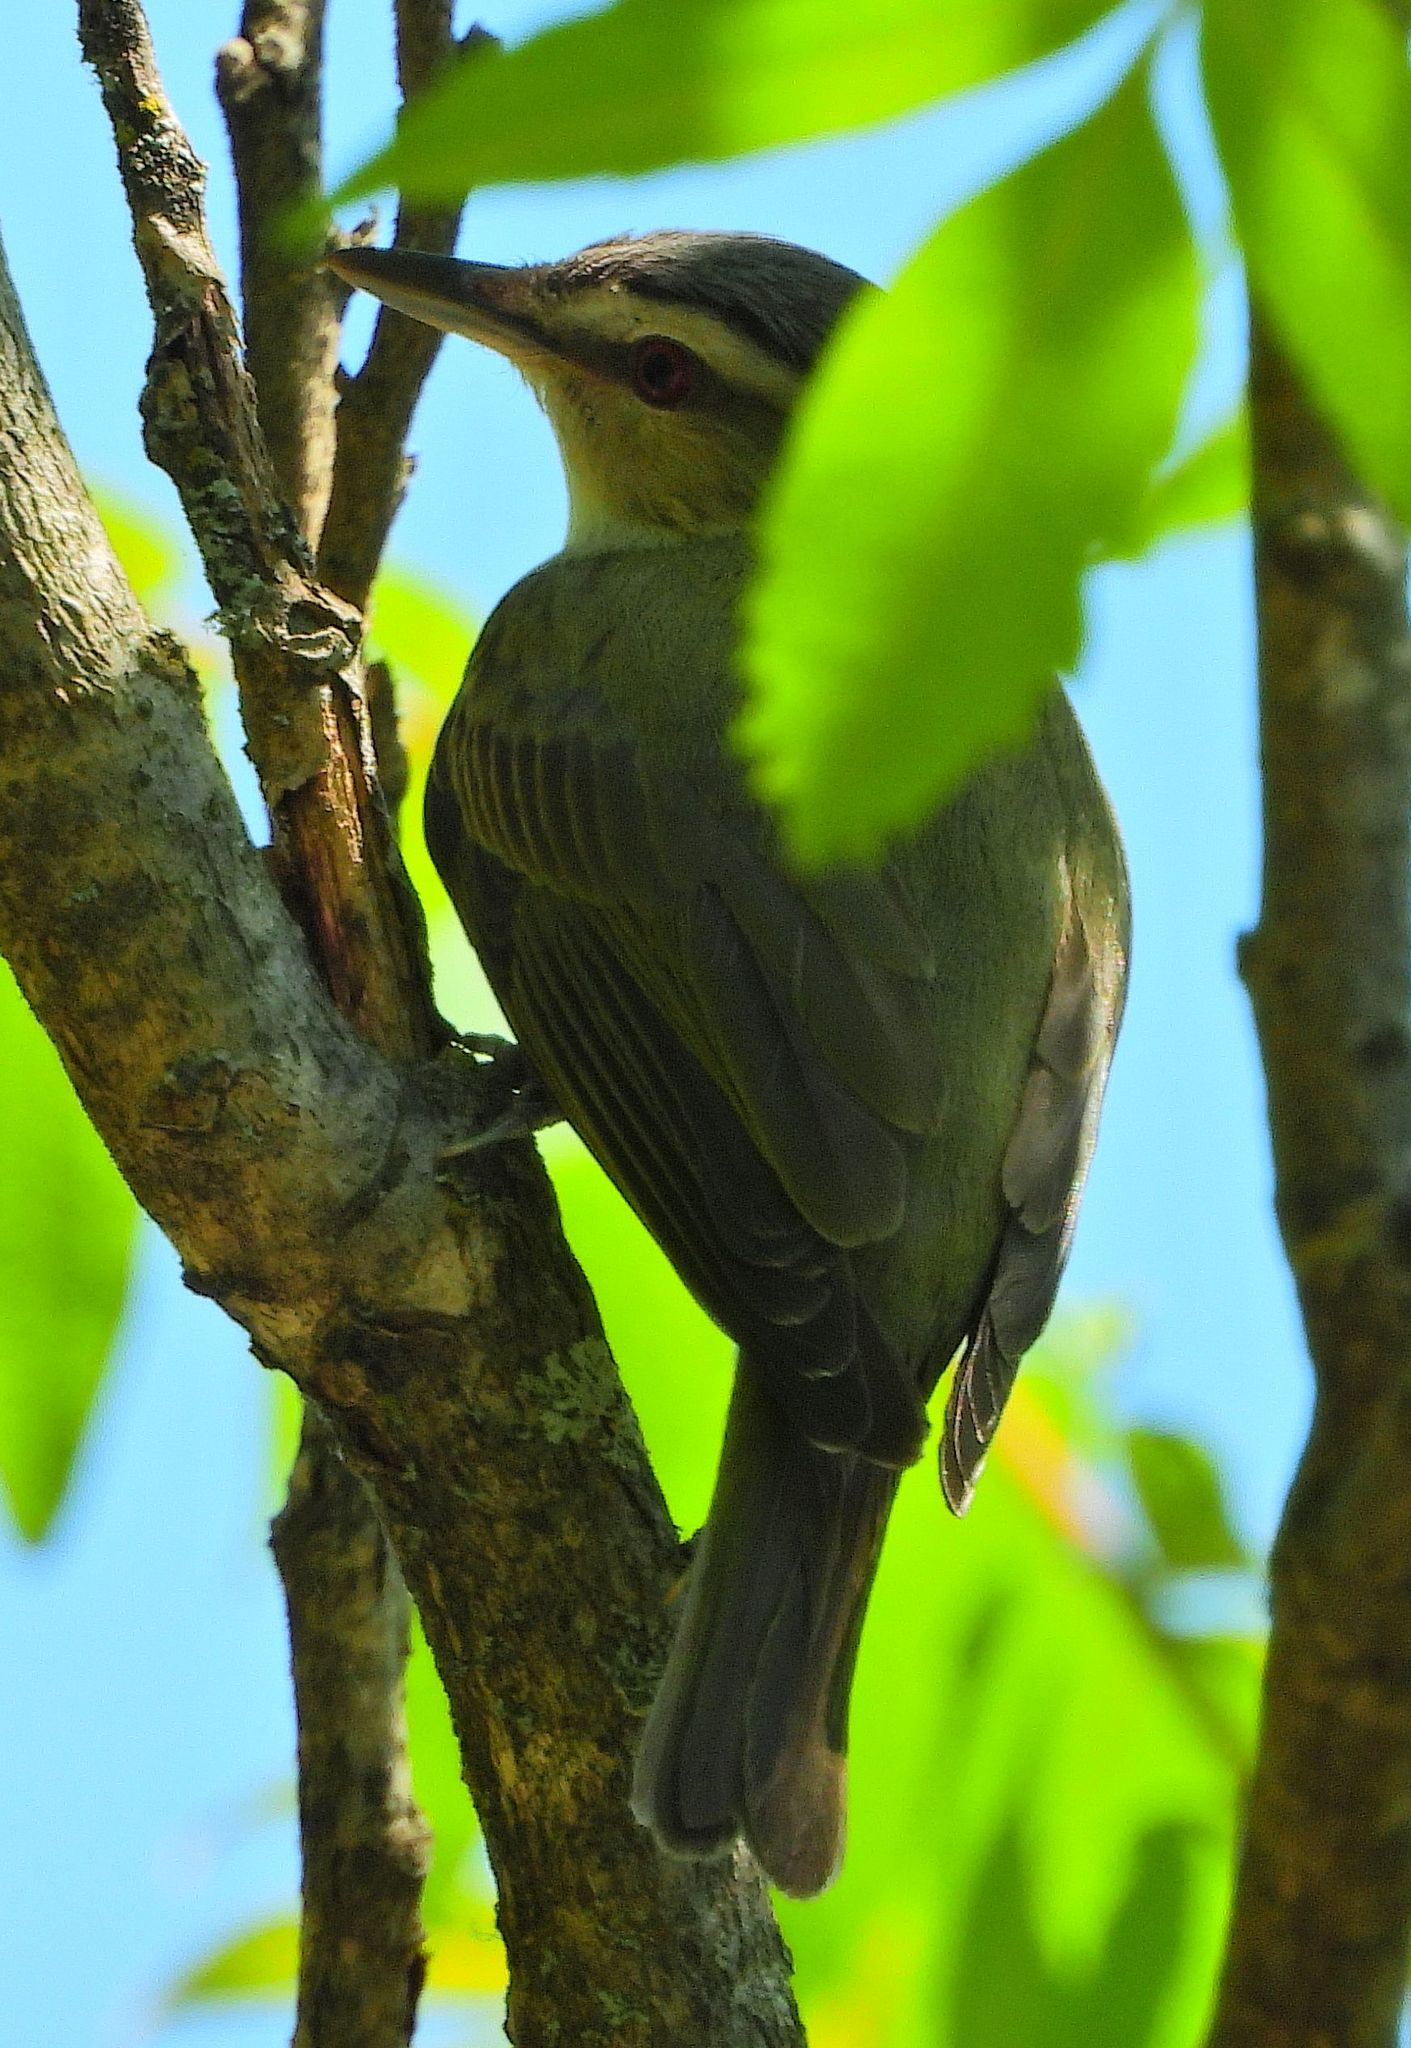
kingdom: Animalia
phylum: Chordata
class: Aves
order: Passeriformes
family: Vireonidae
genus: Vireo
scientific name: Vireo olivaceus
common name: Red-eyed vireo
